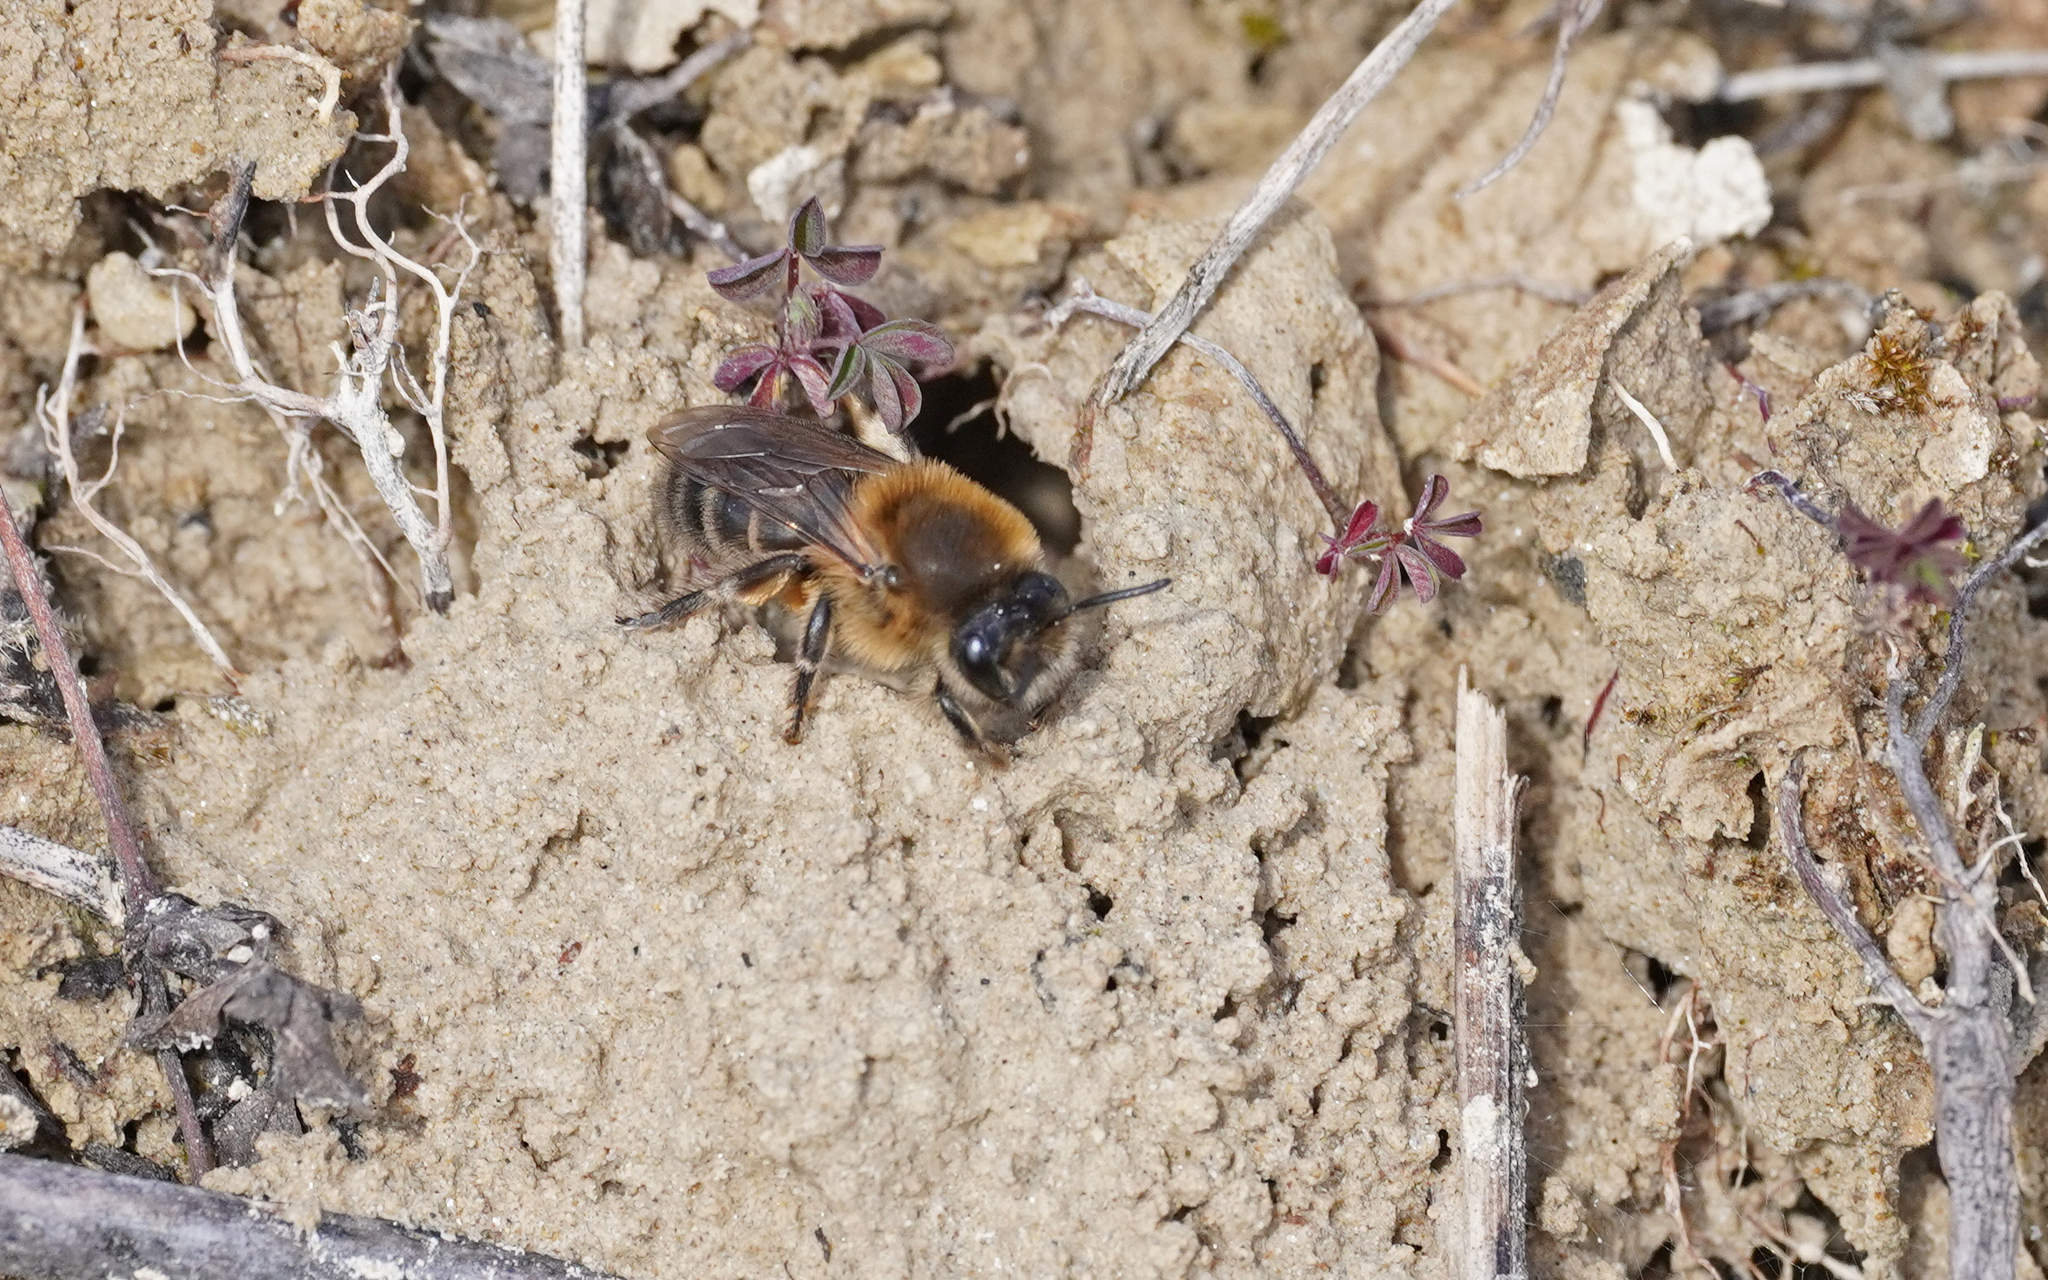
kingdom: Animalia
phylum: Arthropoda
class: Insecta
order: Hymenoptera
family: Colletidae
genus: Colletes
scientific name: Colletes cunicularius
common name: Early colletes
